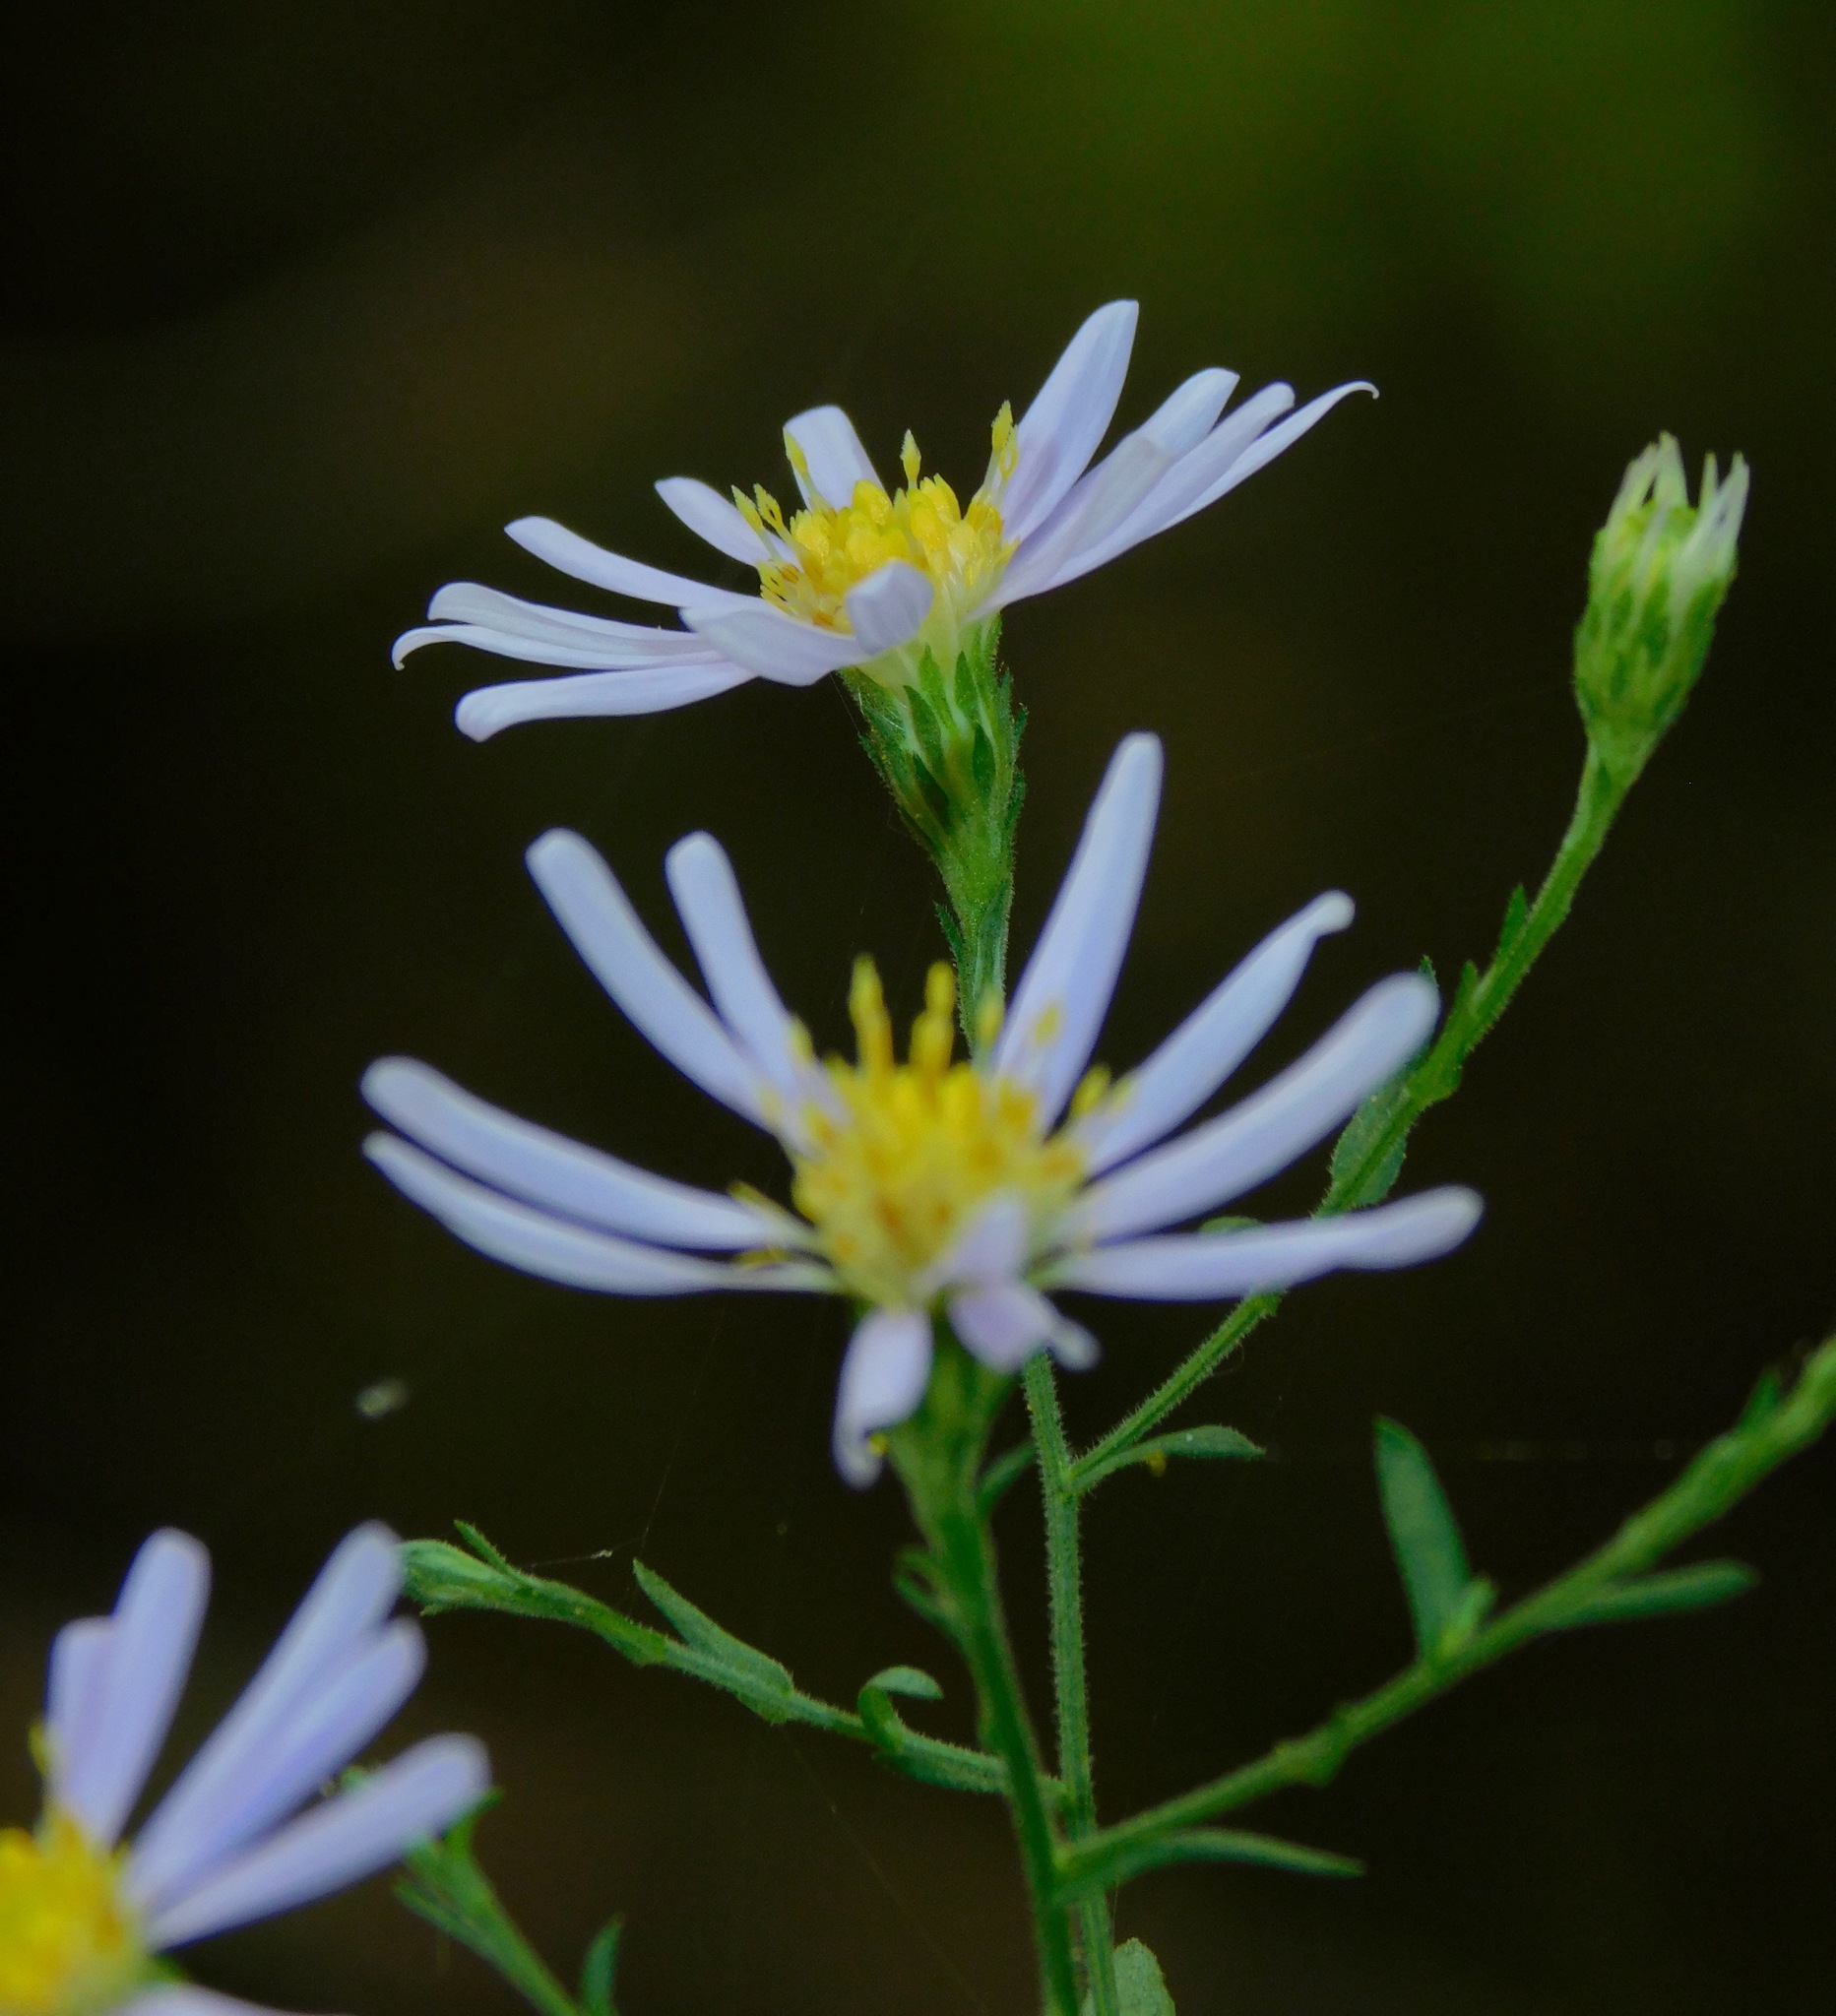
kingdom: Plantae
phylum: Tracheophyta
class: Magnoliopsida
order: Asterales
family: Asteraceae
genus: Symphyotrichum
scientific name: Symphyotrichum undulatum
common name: Clasping heart-leaf aster
